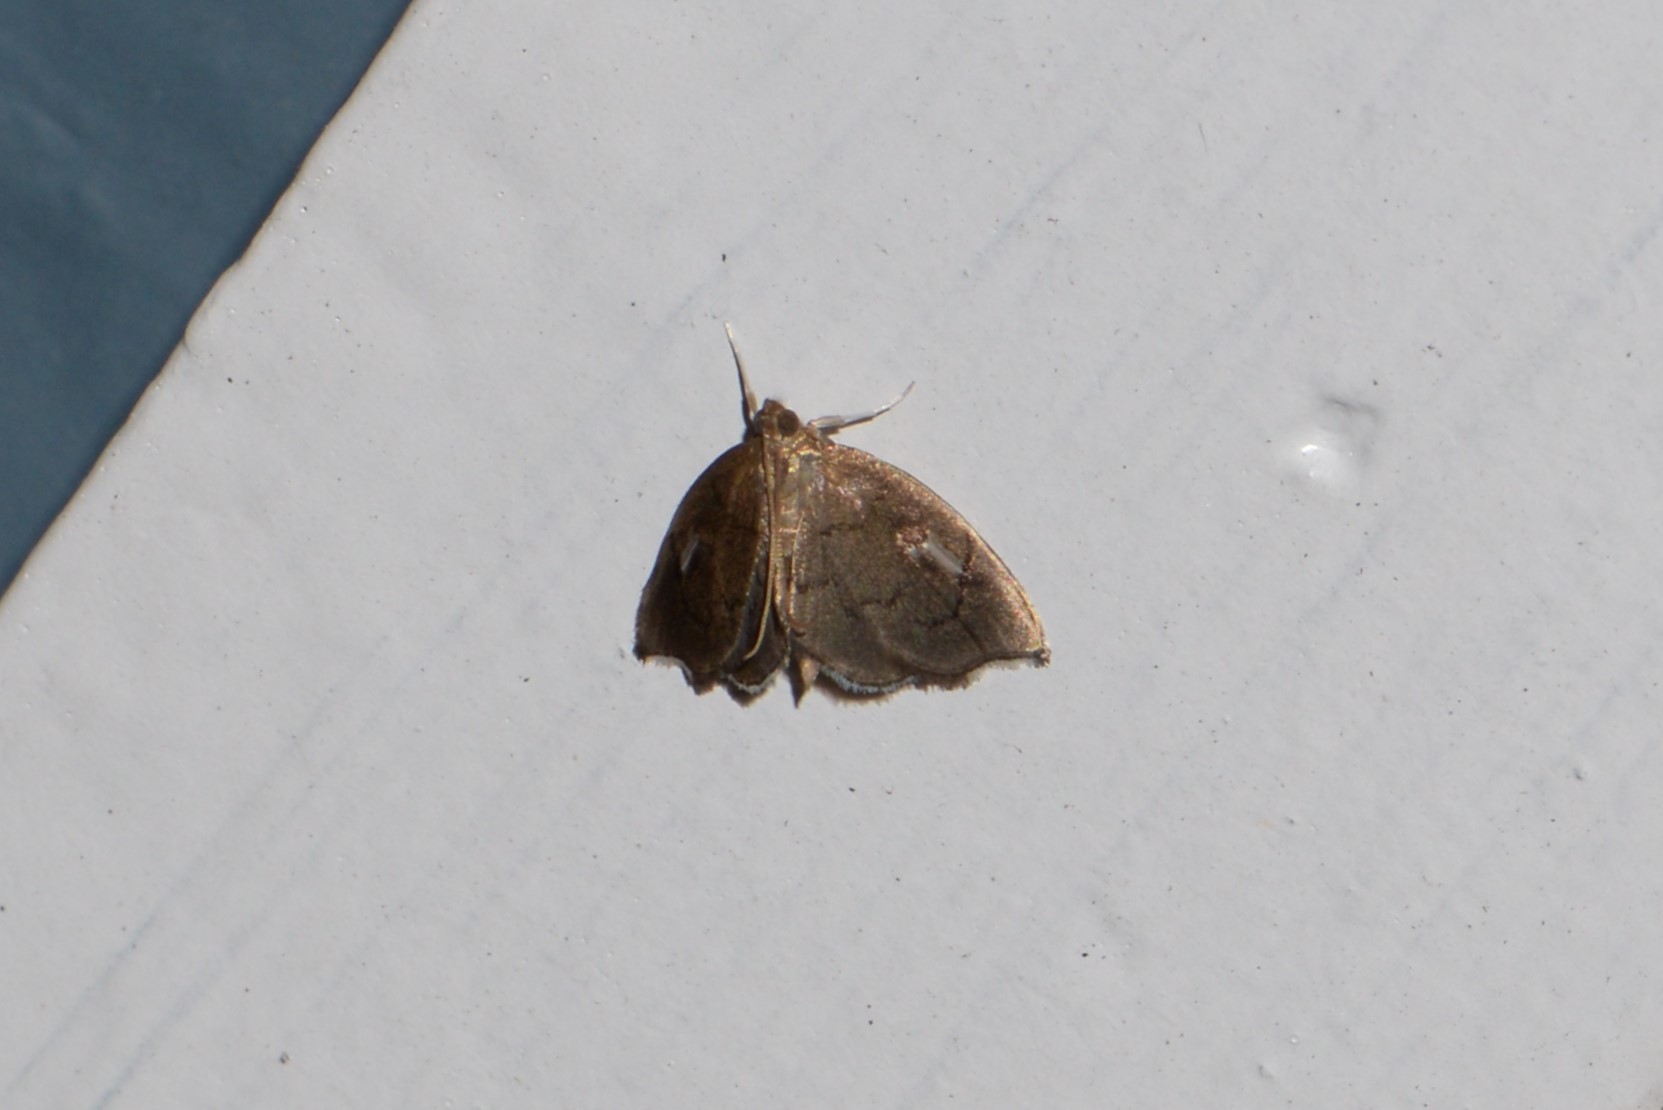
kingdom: Animalia
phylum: Arthropoda
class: Insecta
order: Lepidoptera
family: Crambidae
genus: Perispasta
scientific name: Perispasta caeculalis
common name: Titian peale's moth
